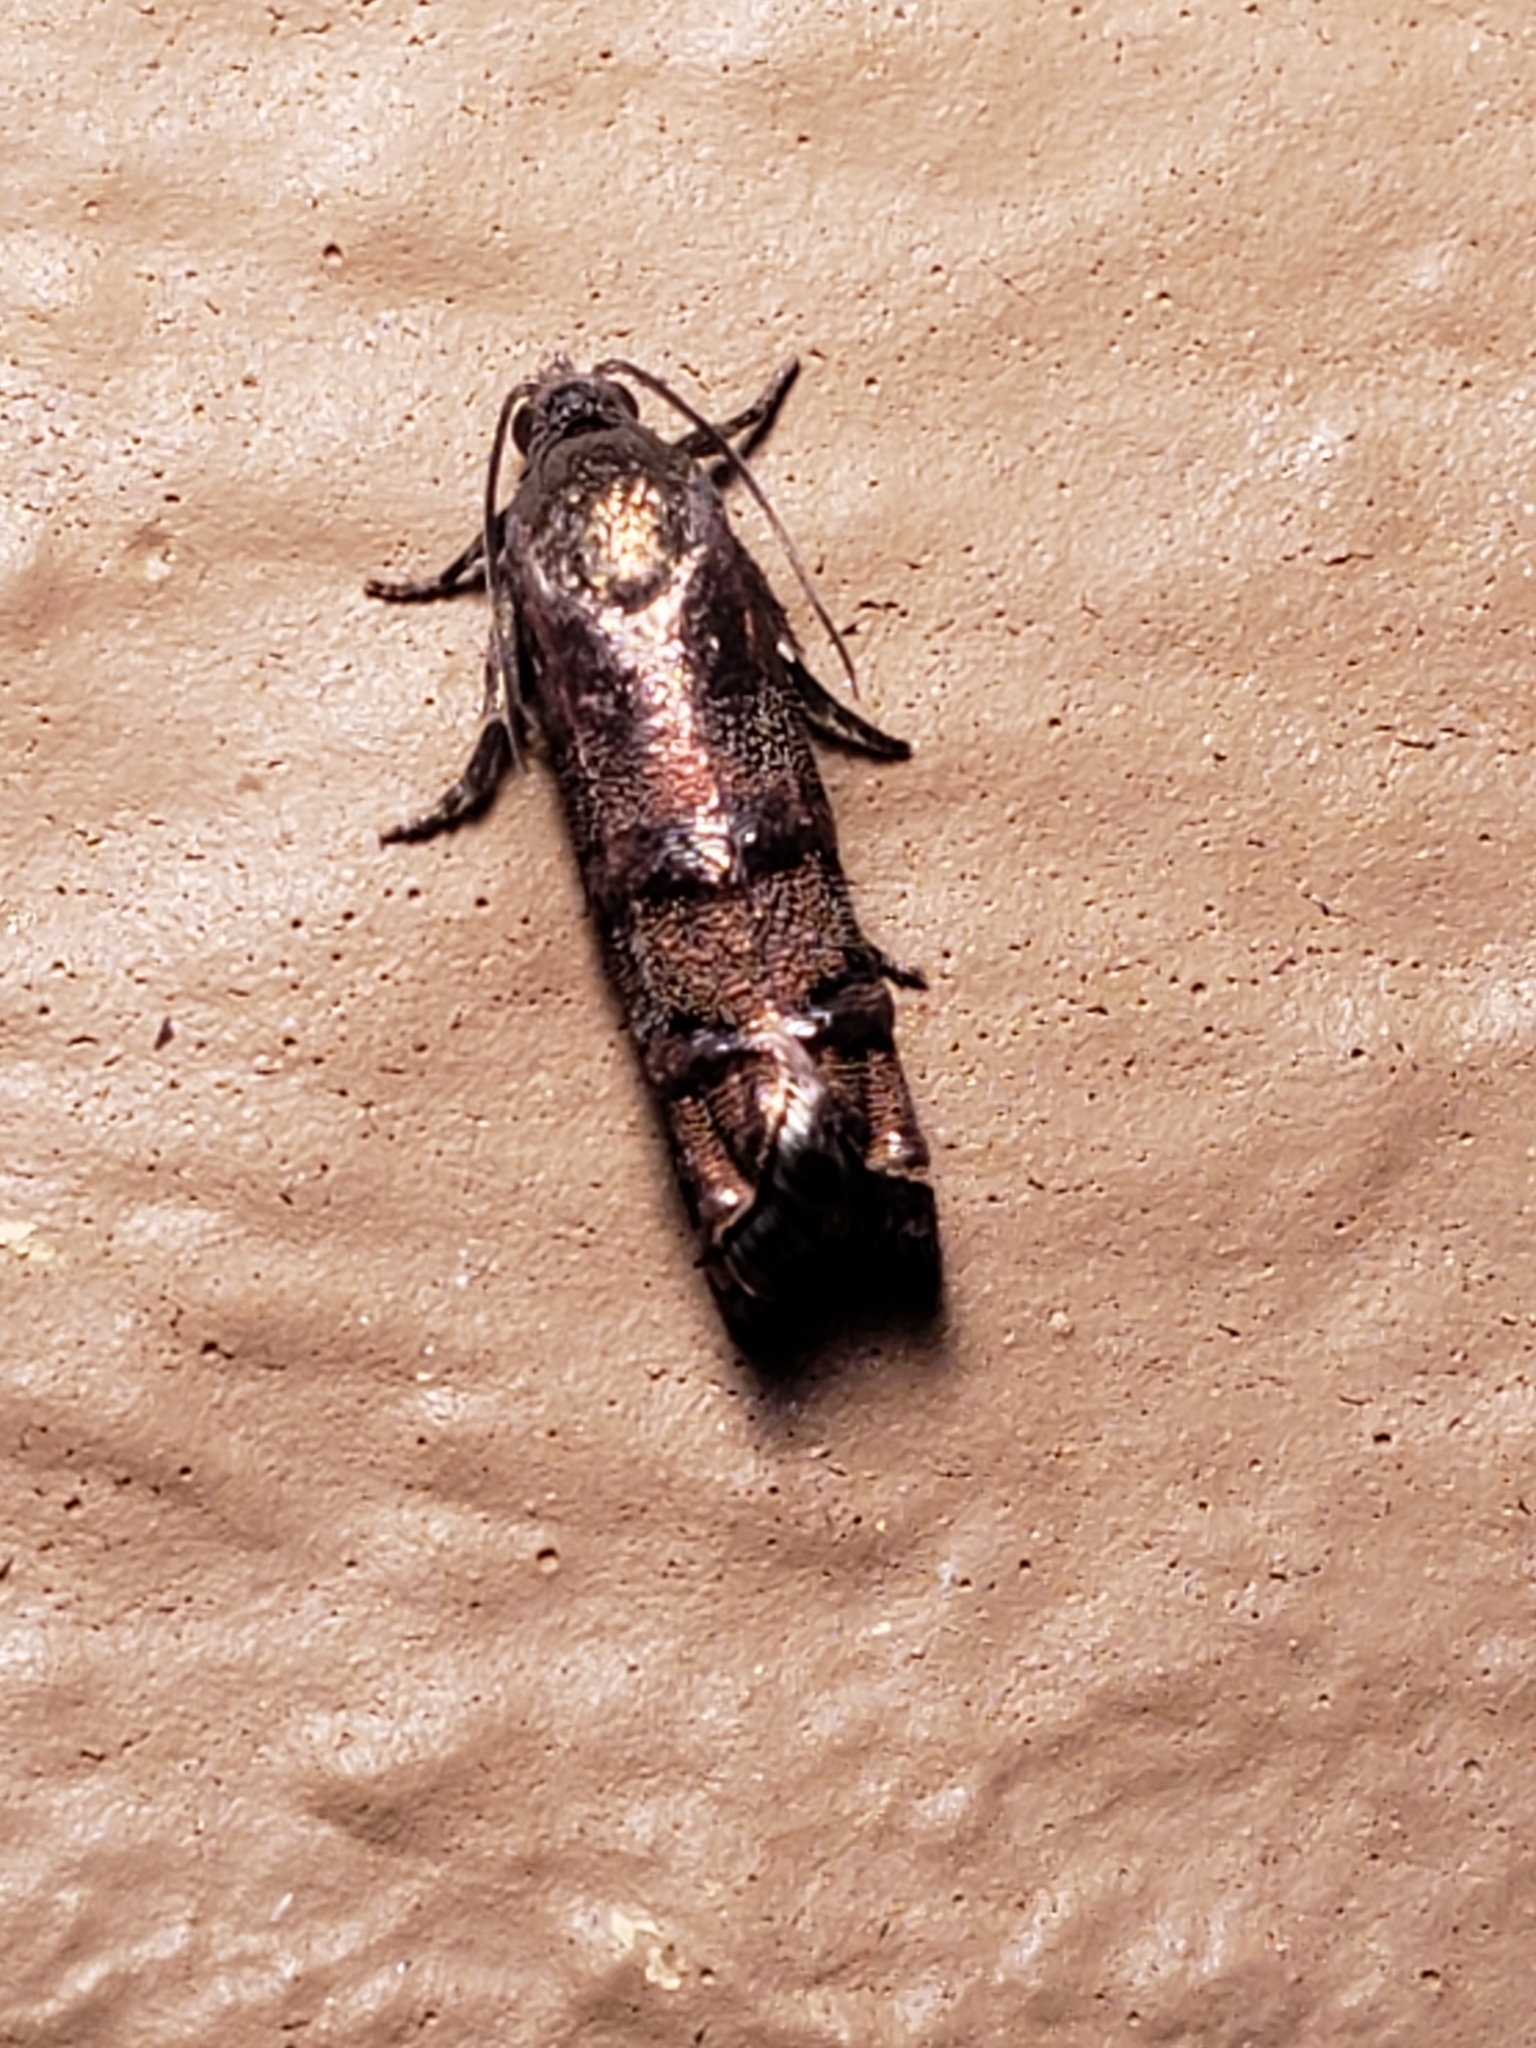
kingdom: Animalia
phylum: Arthropoda
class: Insecta
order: Lepidoptera
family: Tortricidae
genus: Cydia
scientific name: Cydia toreuta
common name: Eastern pine seedworm moth
